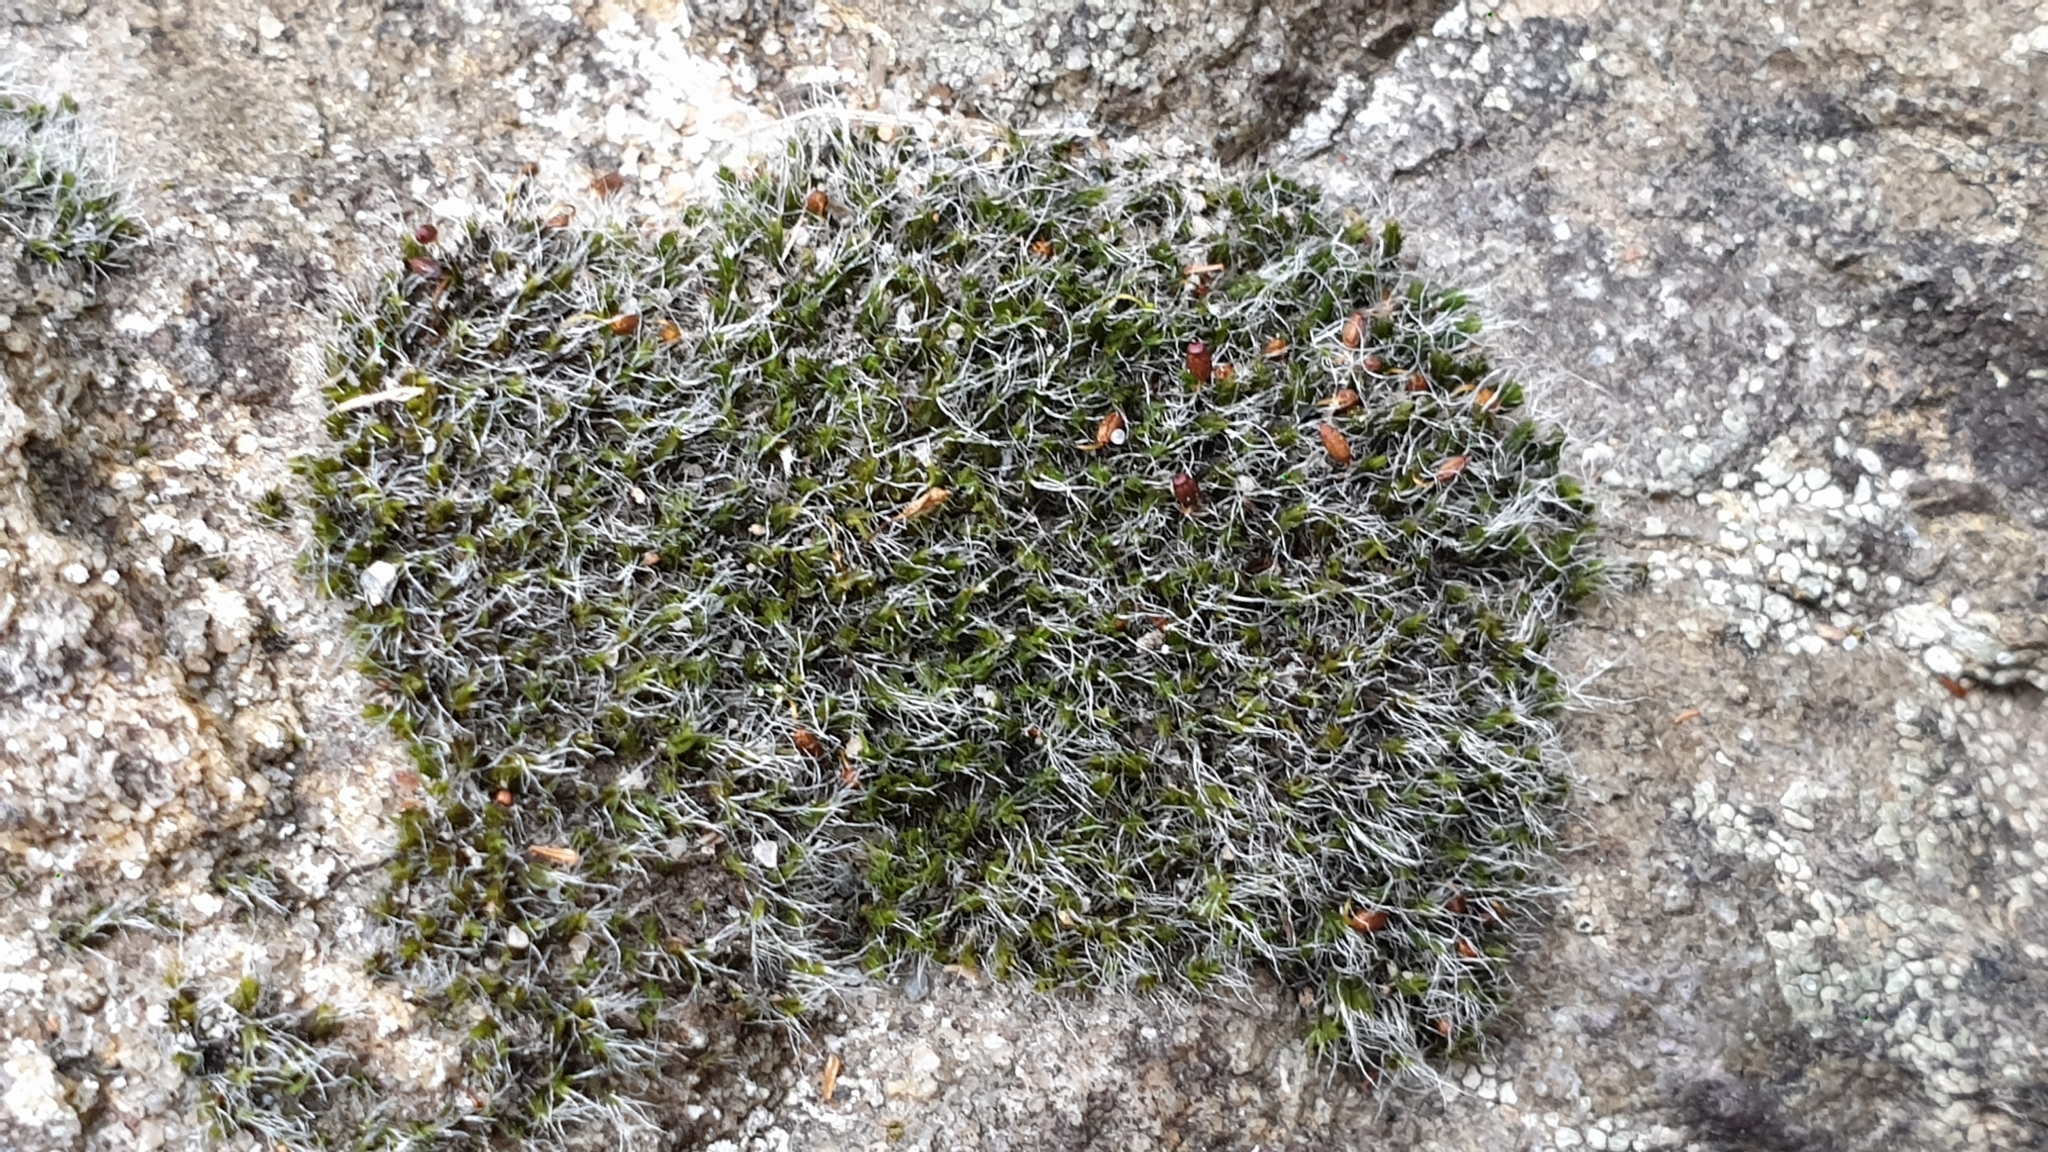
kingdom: Plantae
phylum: Bryophyta
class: Bryopsida
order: Grimmiales
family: Grimmiaceae
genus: Grimmia
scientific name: Grimmia pulvinata
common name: Grey-cushioned grimmia
